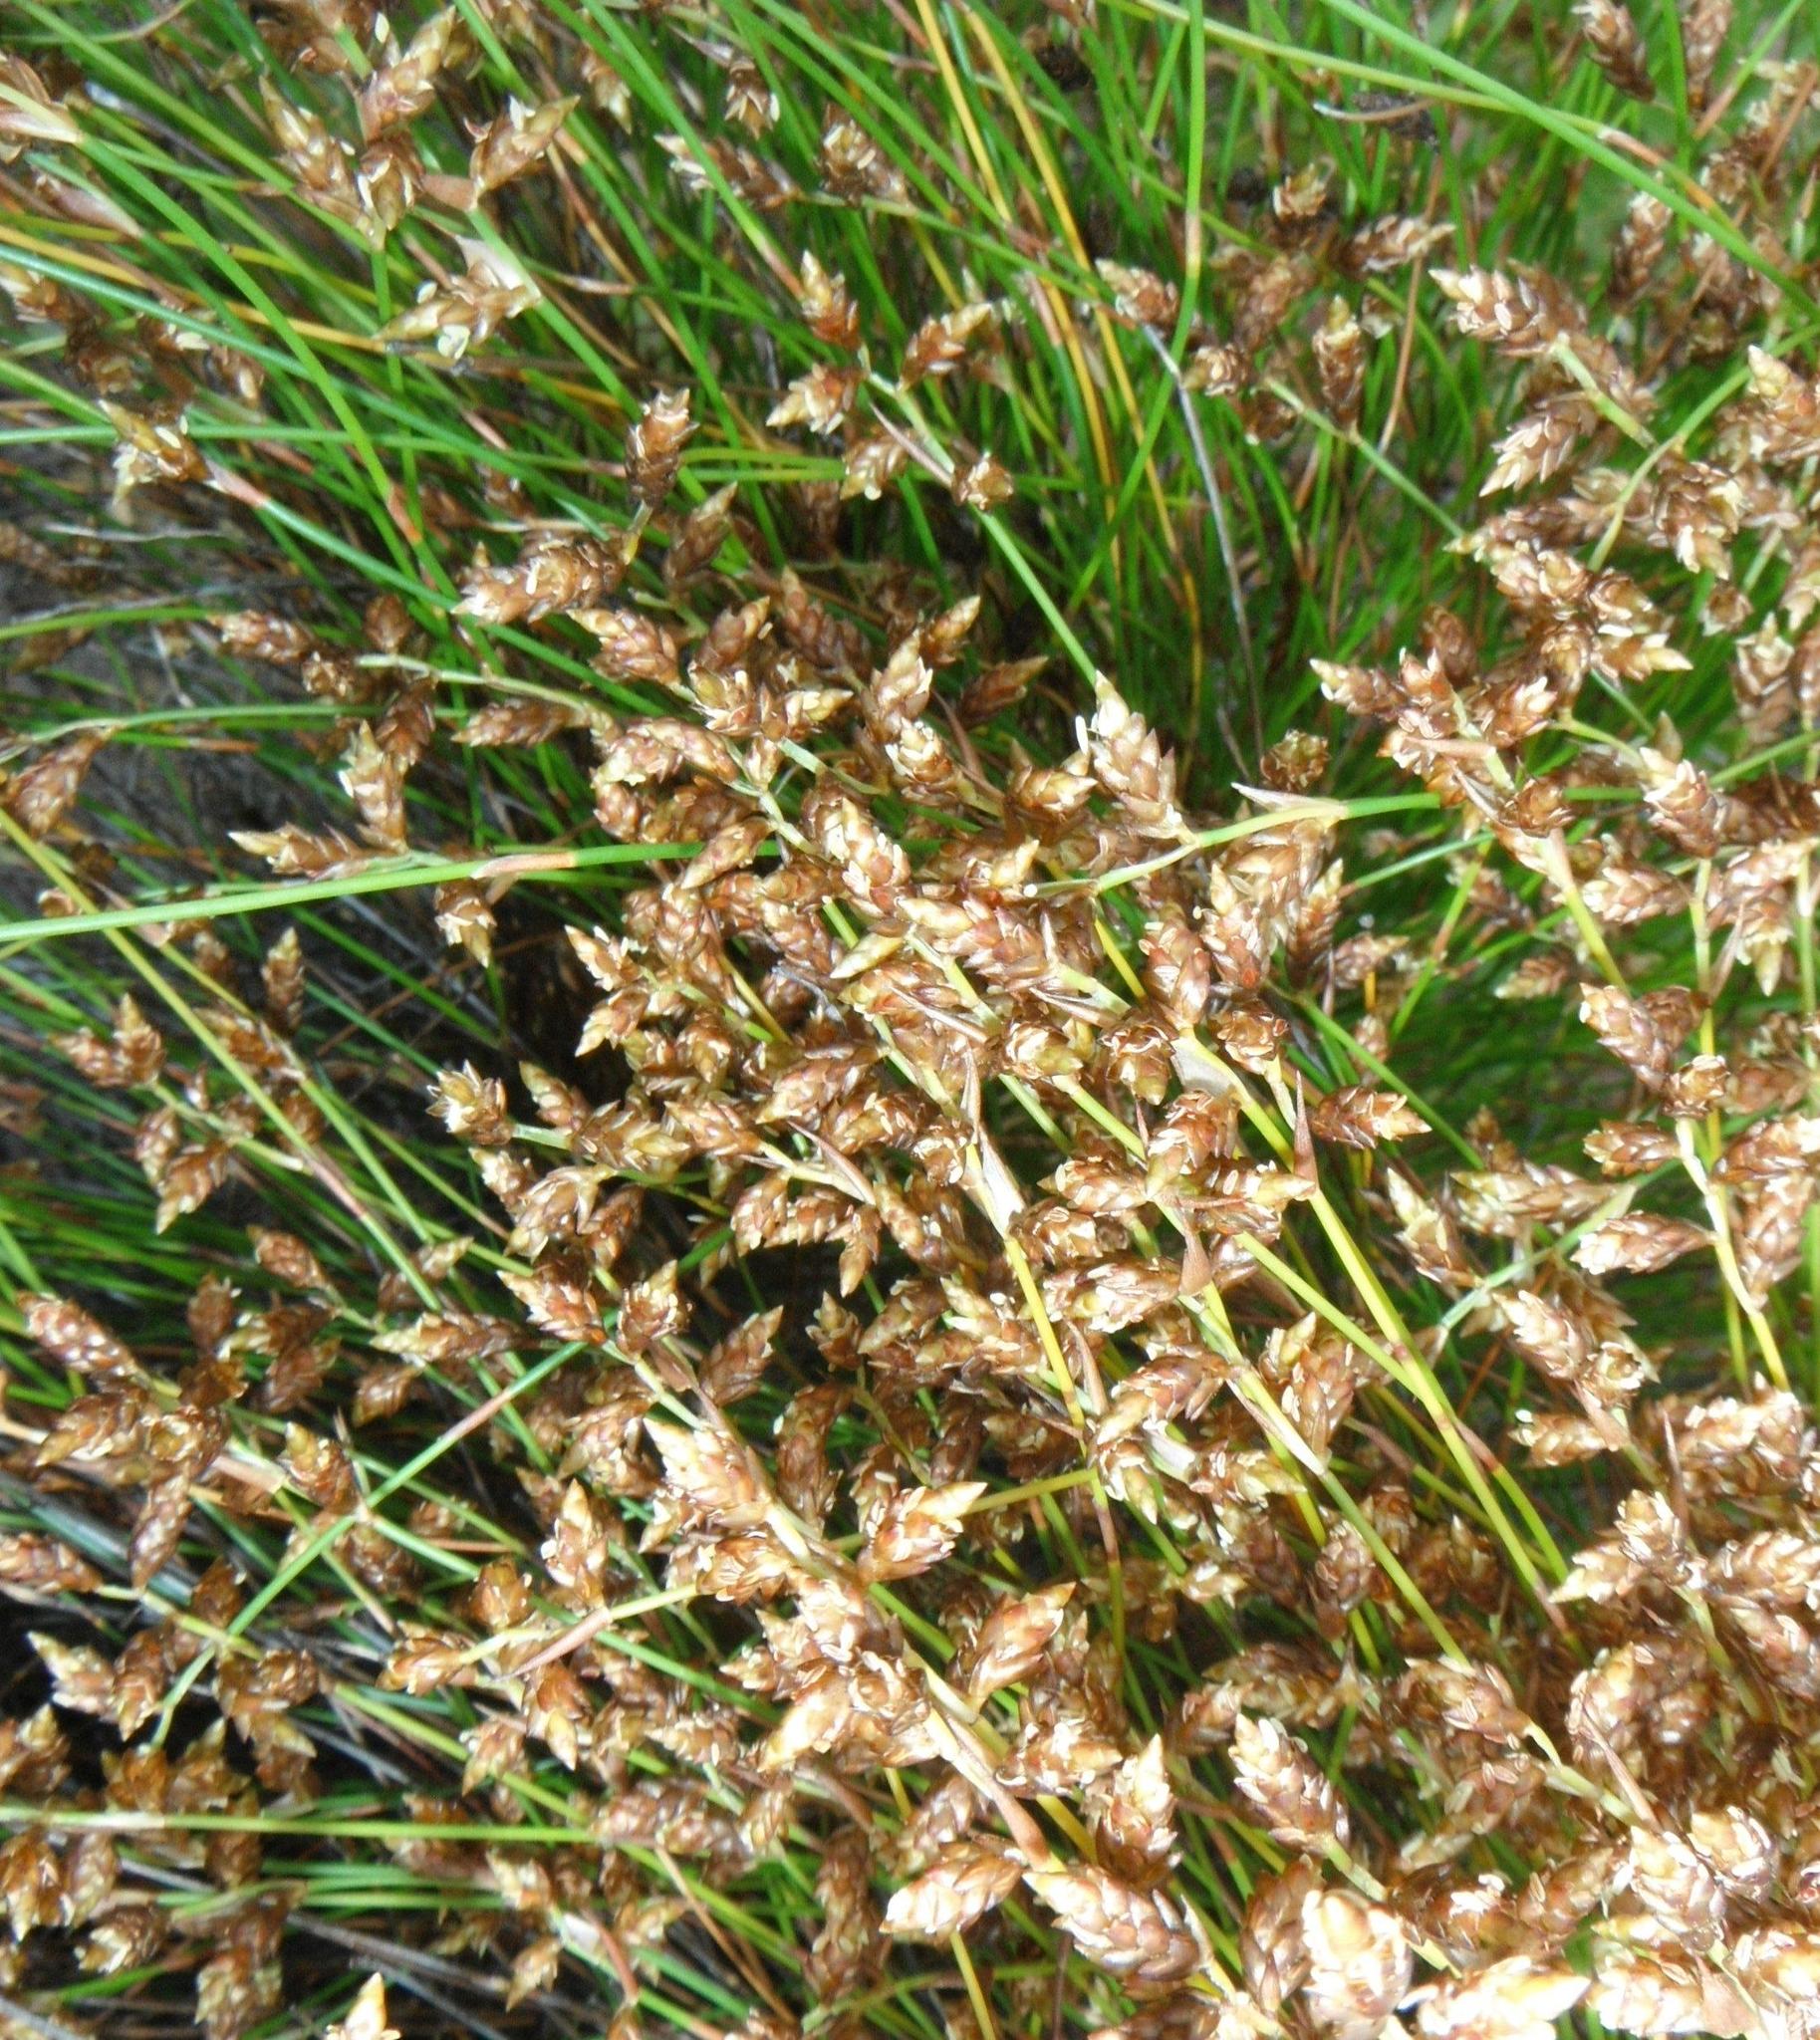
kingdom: Plantae
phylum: Tracheophyta
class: Liliopsida
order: Poales
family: Restionaceae
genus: Mastersiella
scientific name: Mastersiella digitata
